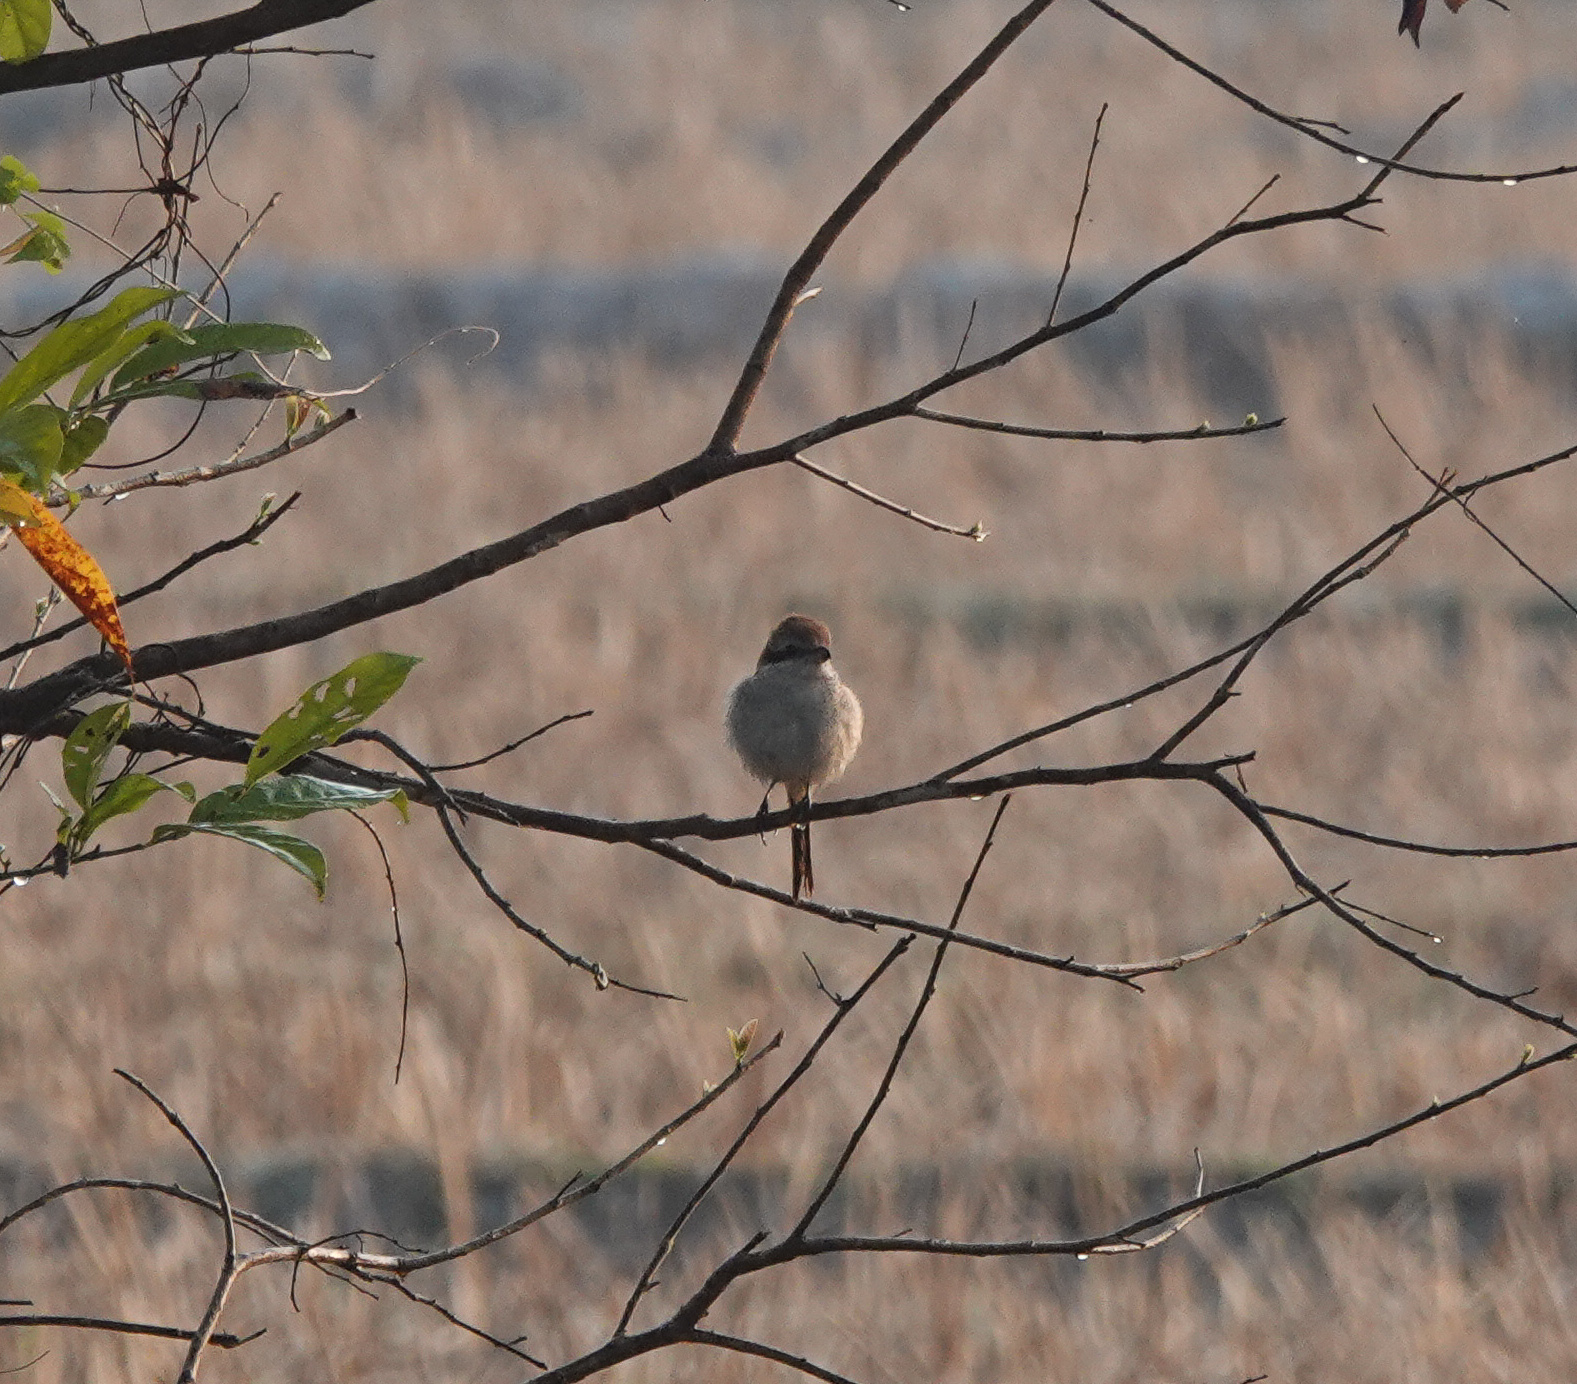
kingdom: Animalia
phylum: Chordata
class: Aves
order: Passeriformes
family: Laniidae
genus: Lanius
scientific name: Lanius cristatus
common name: Brown shrike
